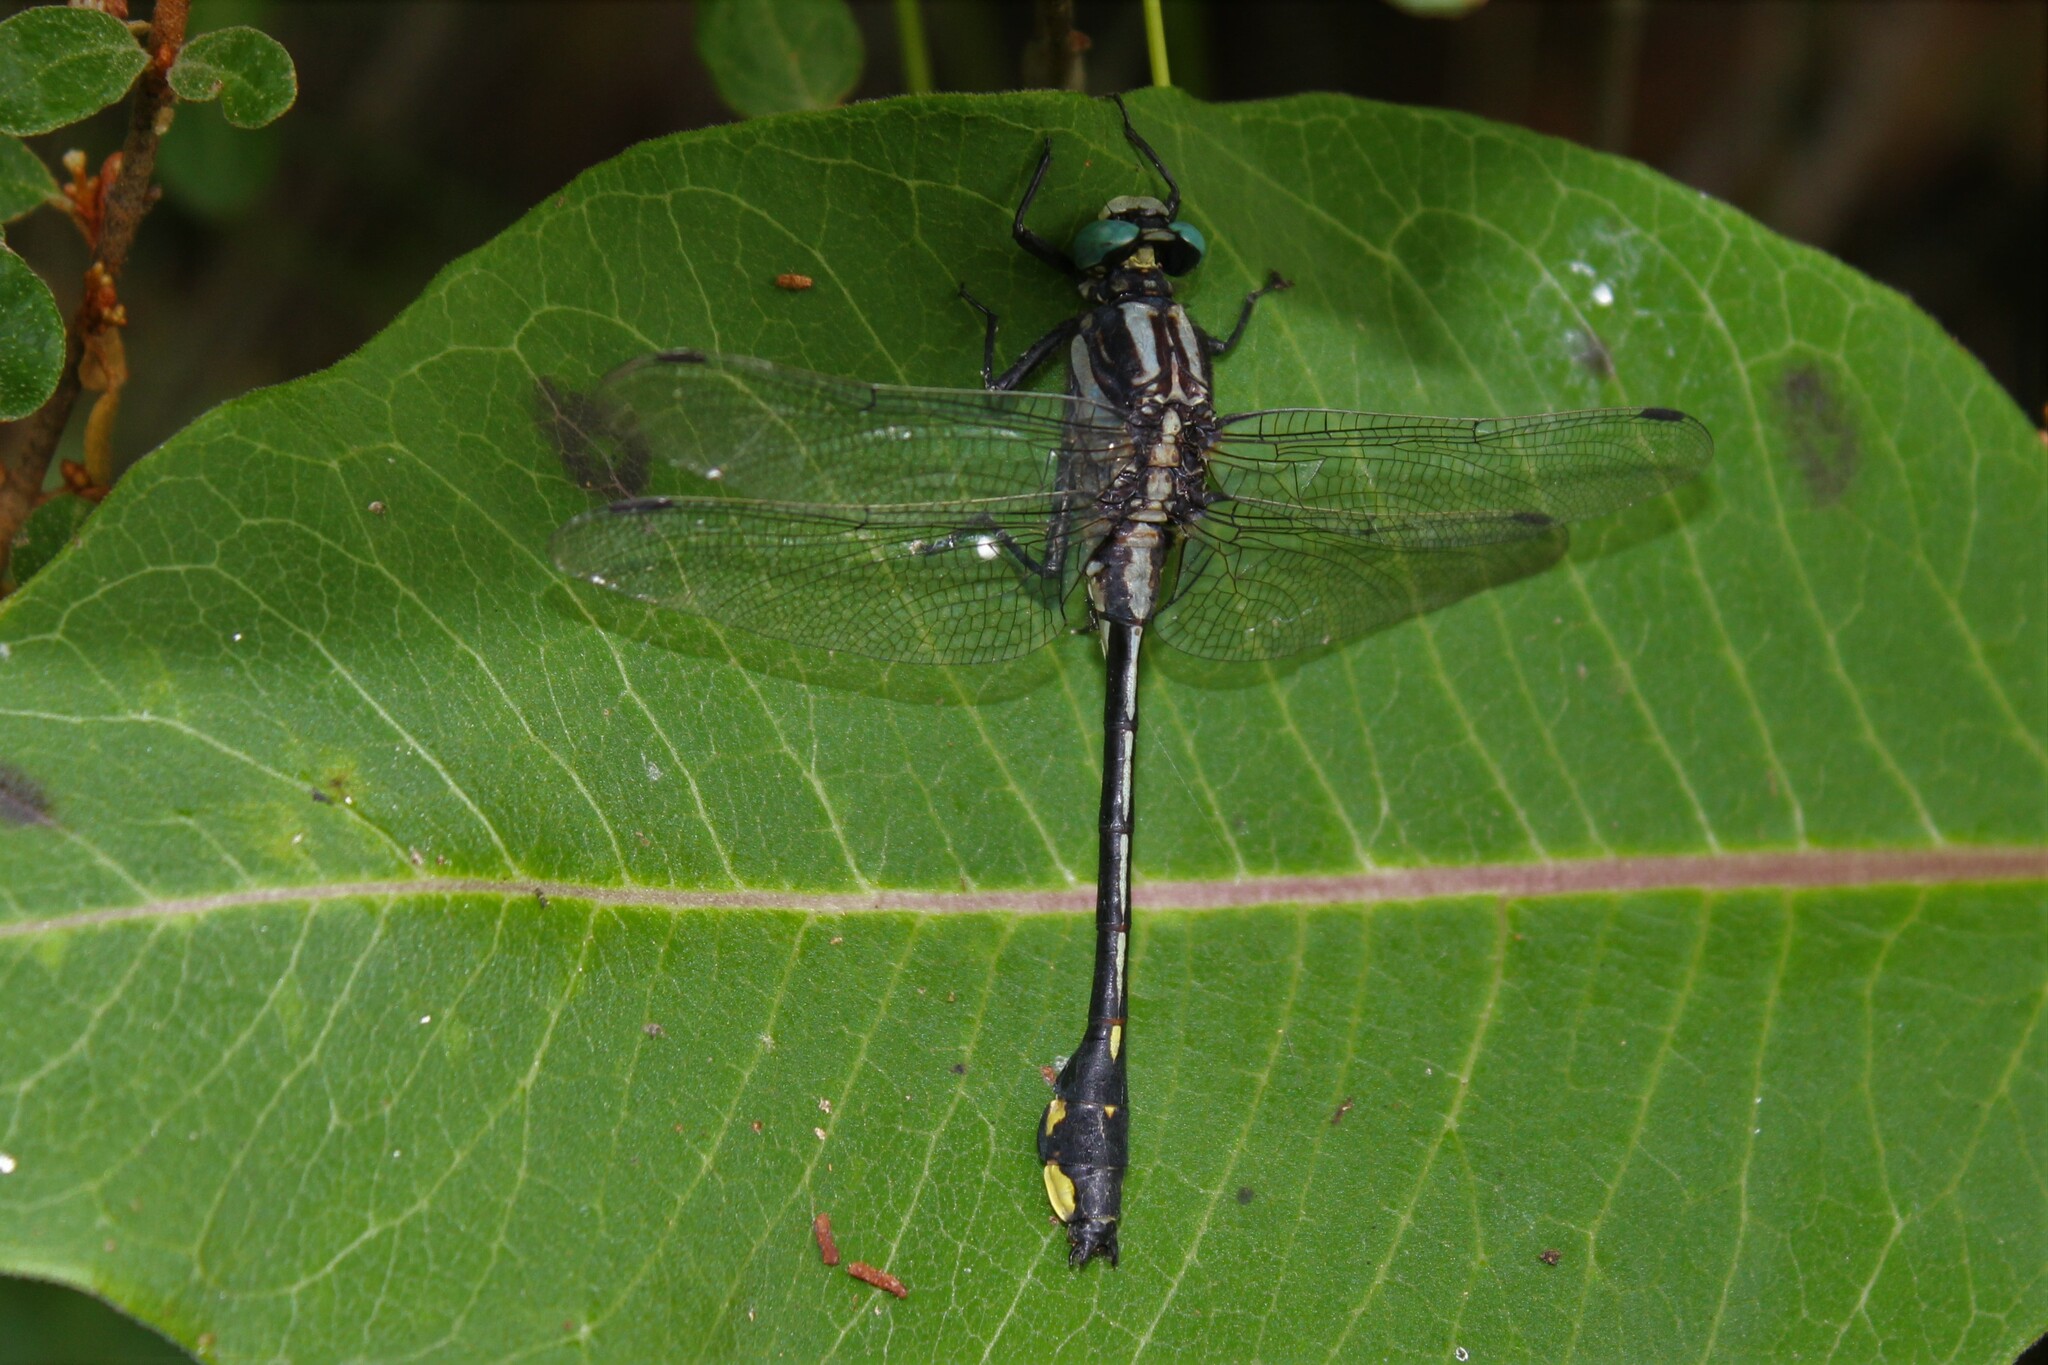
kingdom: Animalia
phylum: Arthropoda
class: Insecta
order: Odonata
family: Gomphidae
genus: Gomphurus
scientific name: Gomphurus fraternus
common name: Midland clubtail
